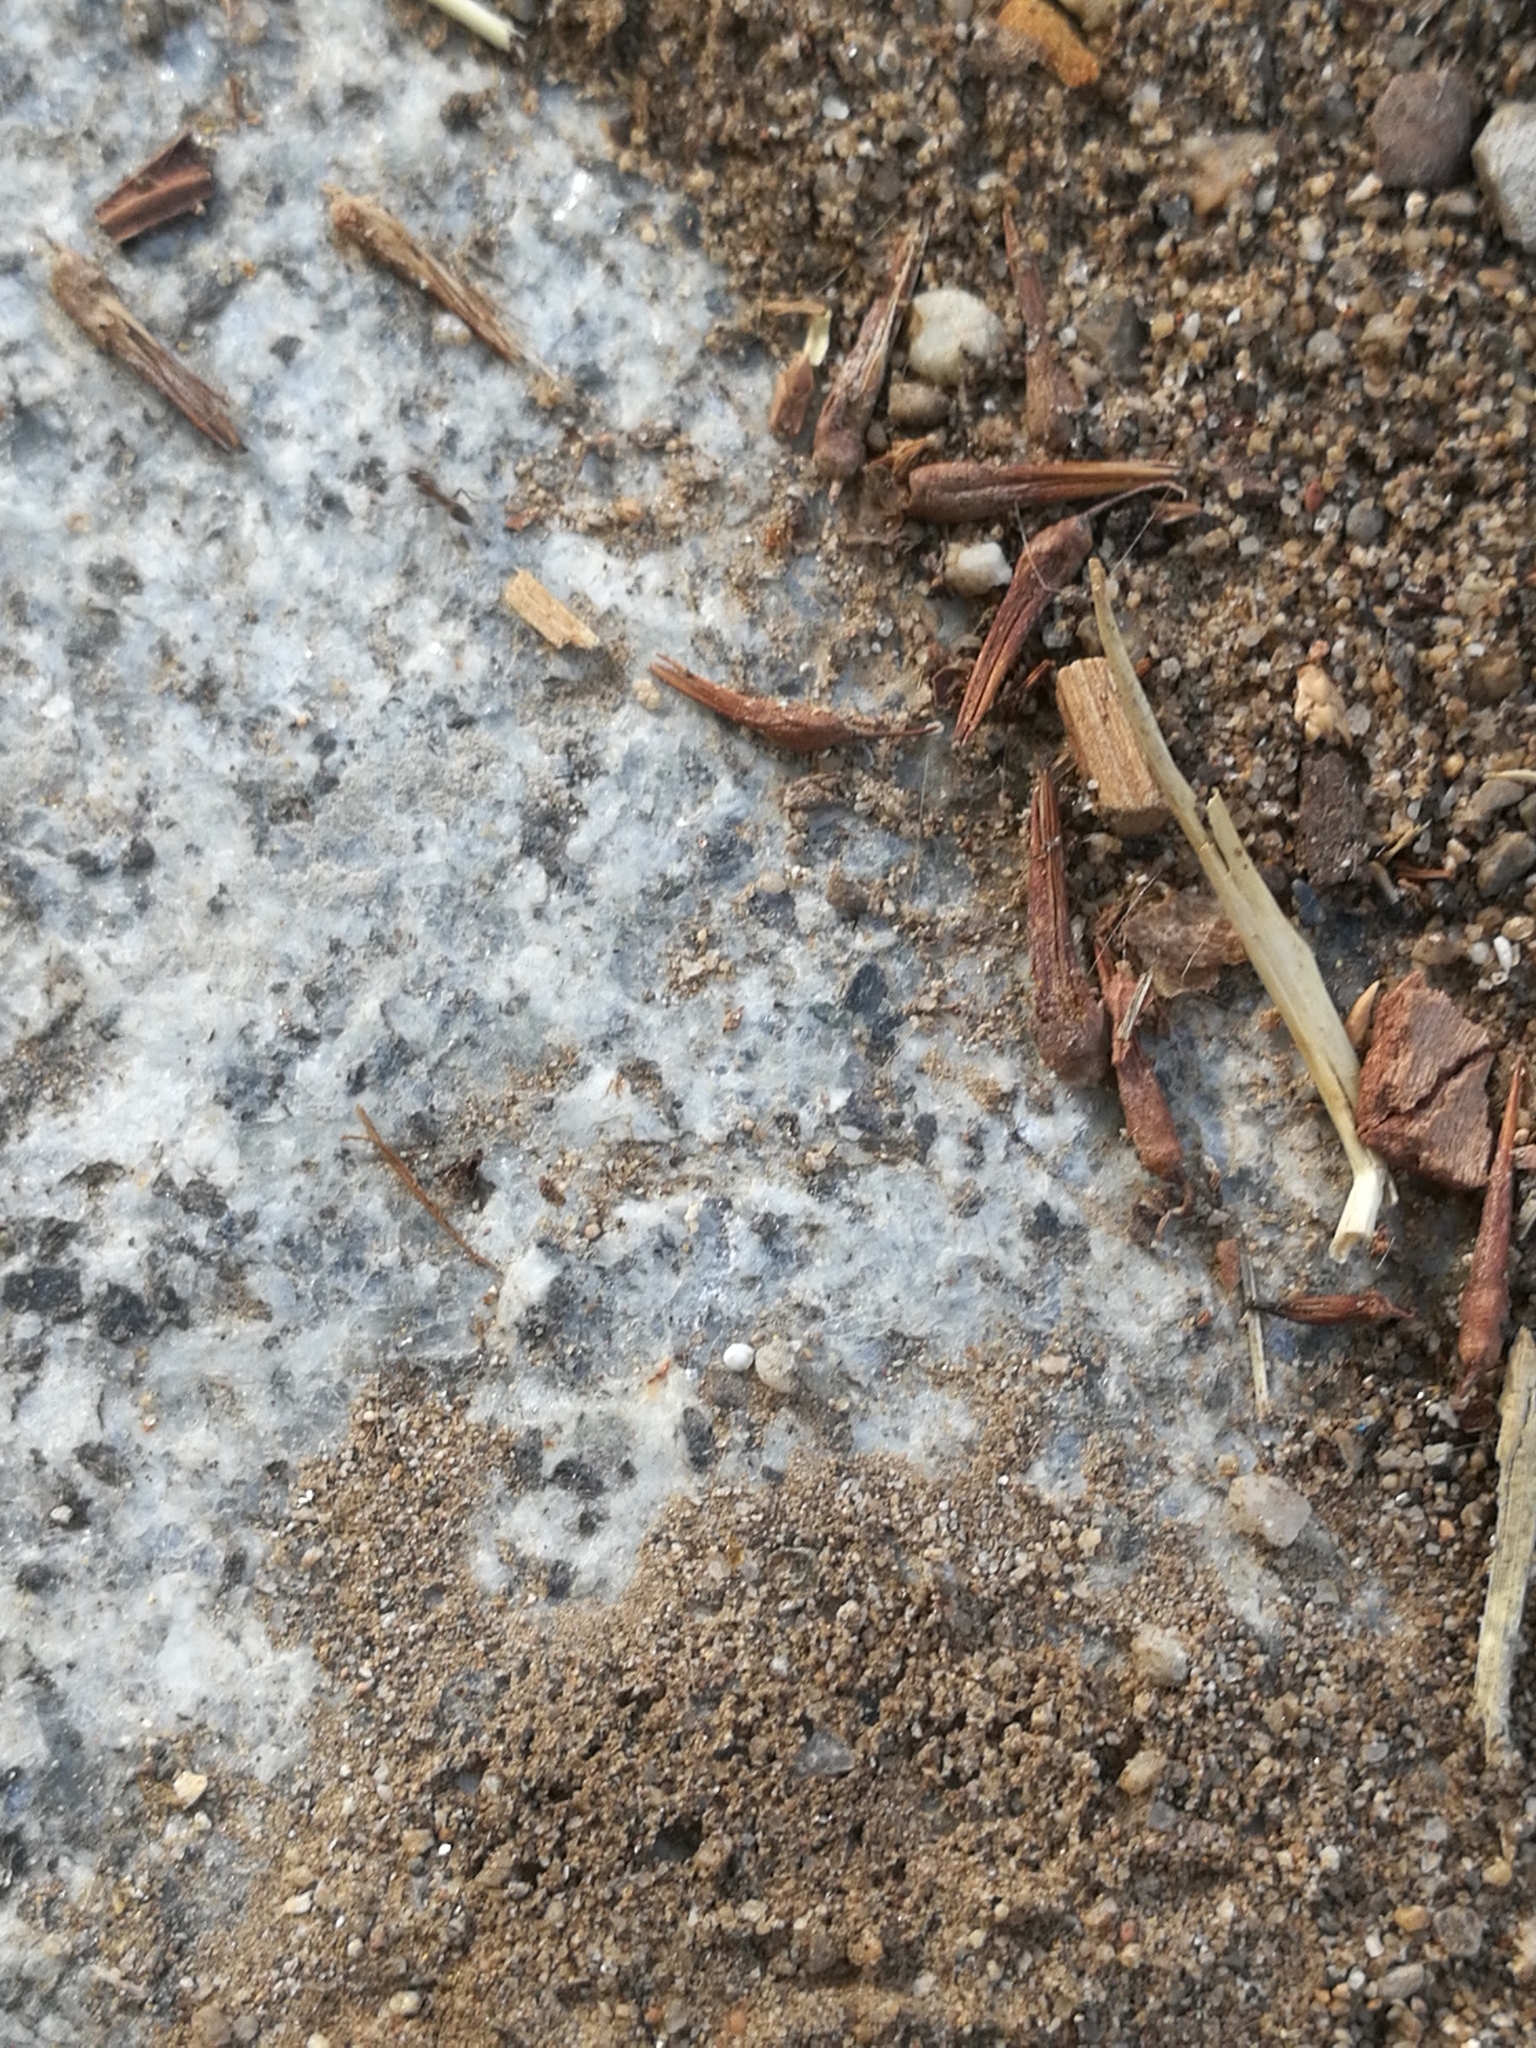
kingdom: Animalia
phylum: Arthropoda
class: Insecta
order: Hymenoptera
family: Formicidae
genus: Linepithema
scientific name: Linepithema humile
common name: Argentine ant
